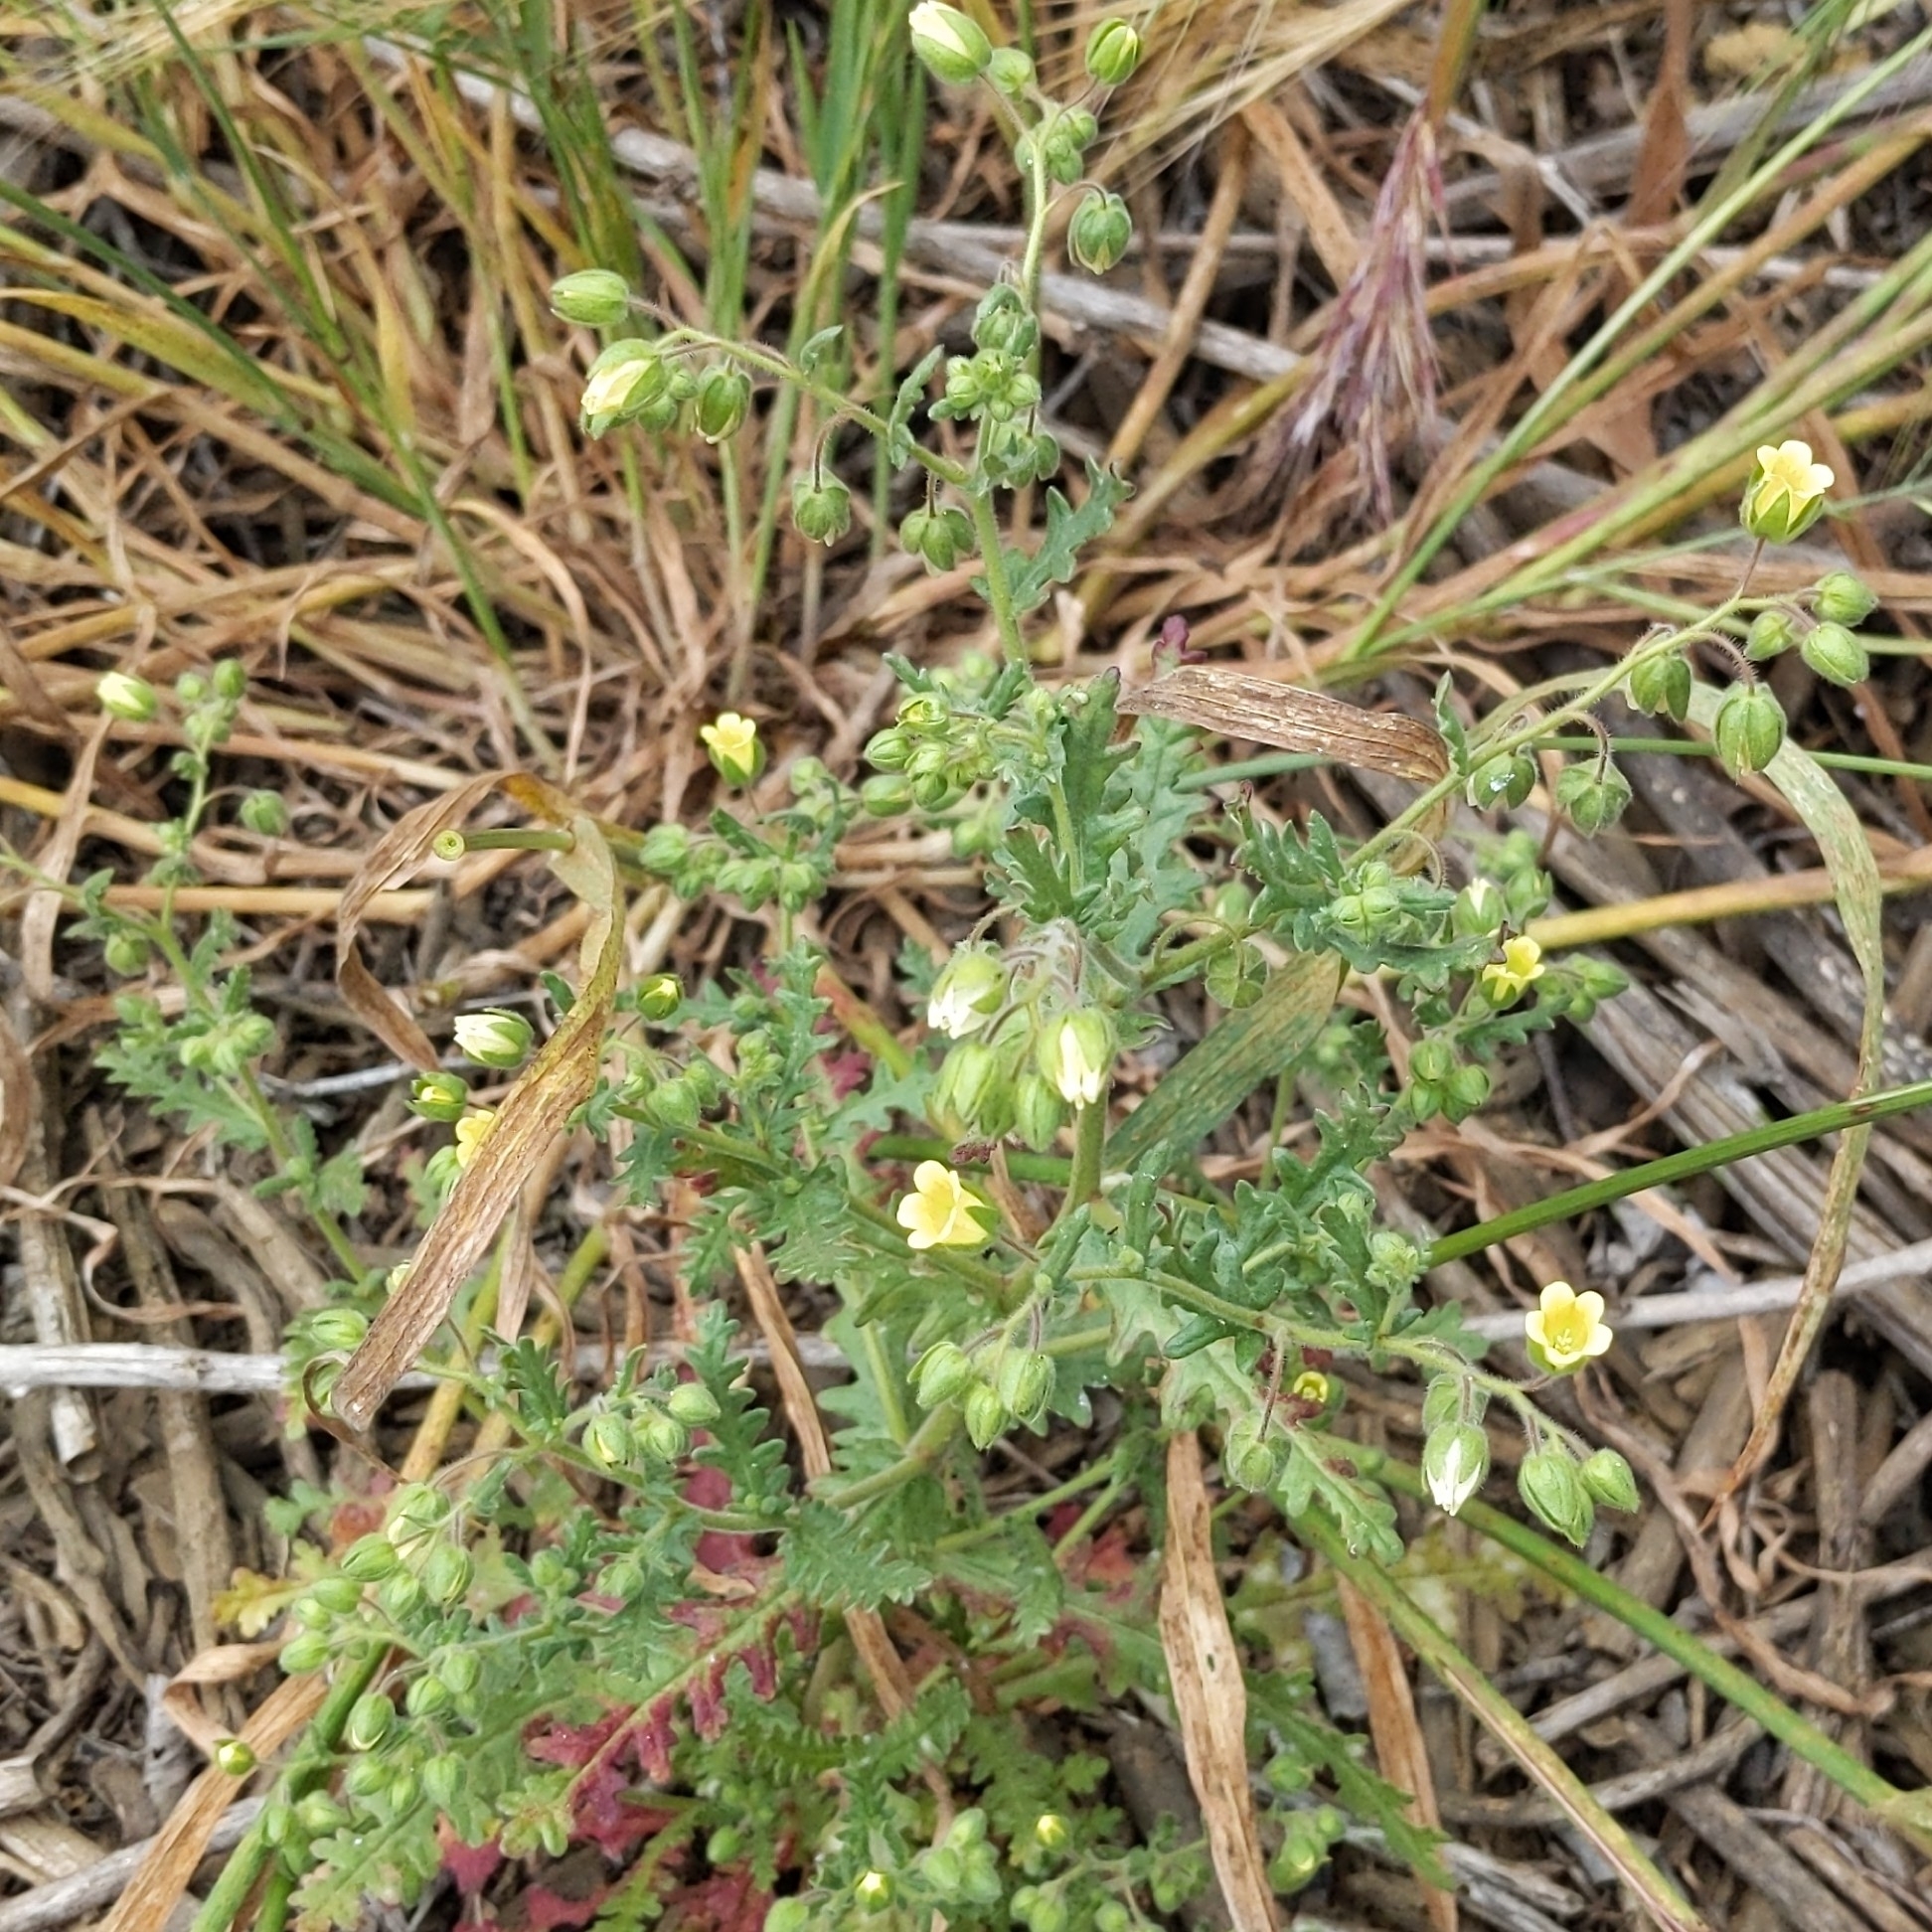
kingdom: Plantae
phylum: Tracheophyta
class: Magnoliopsida
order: Boraginales
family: Hydrophyllaceae
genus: Emmenanthe
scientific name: Emmenanthe penduliflora
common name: Whispering-bells
